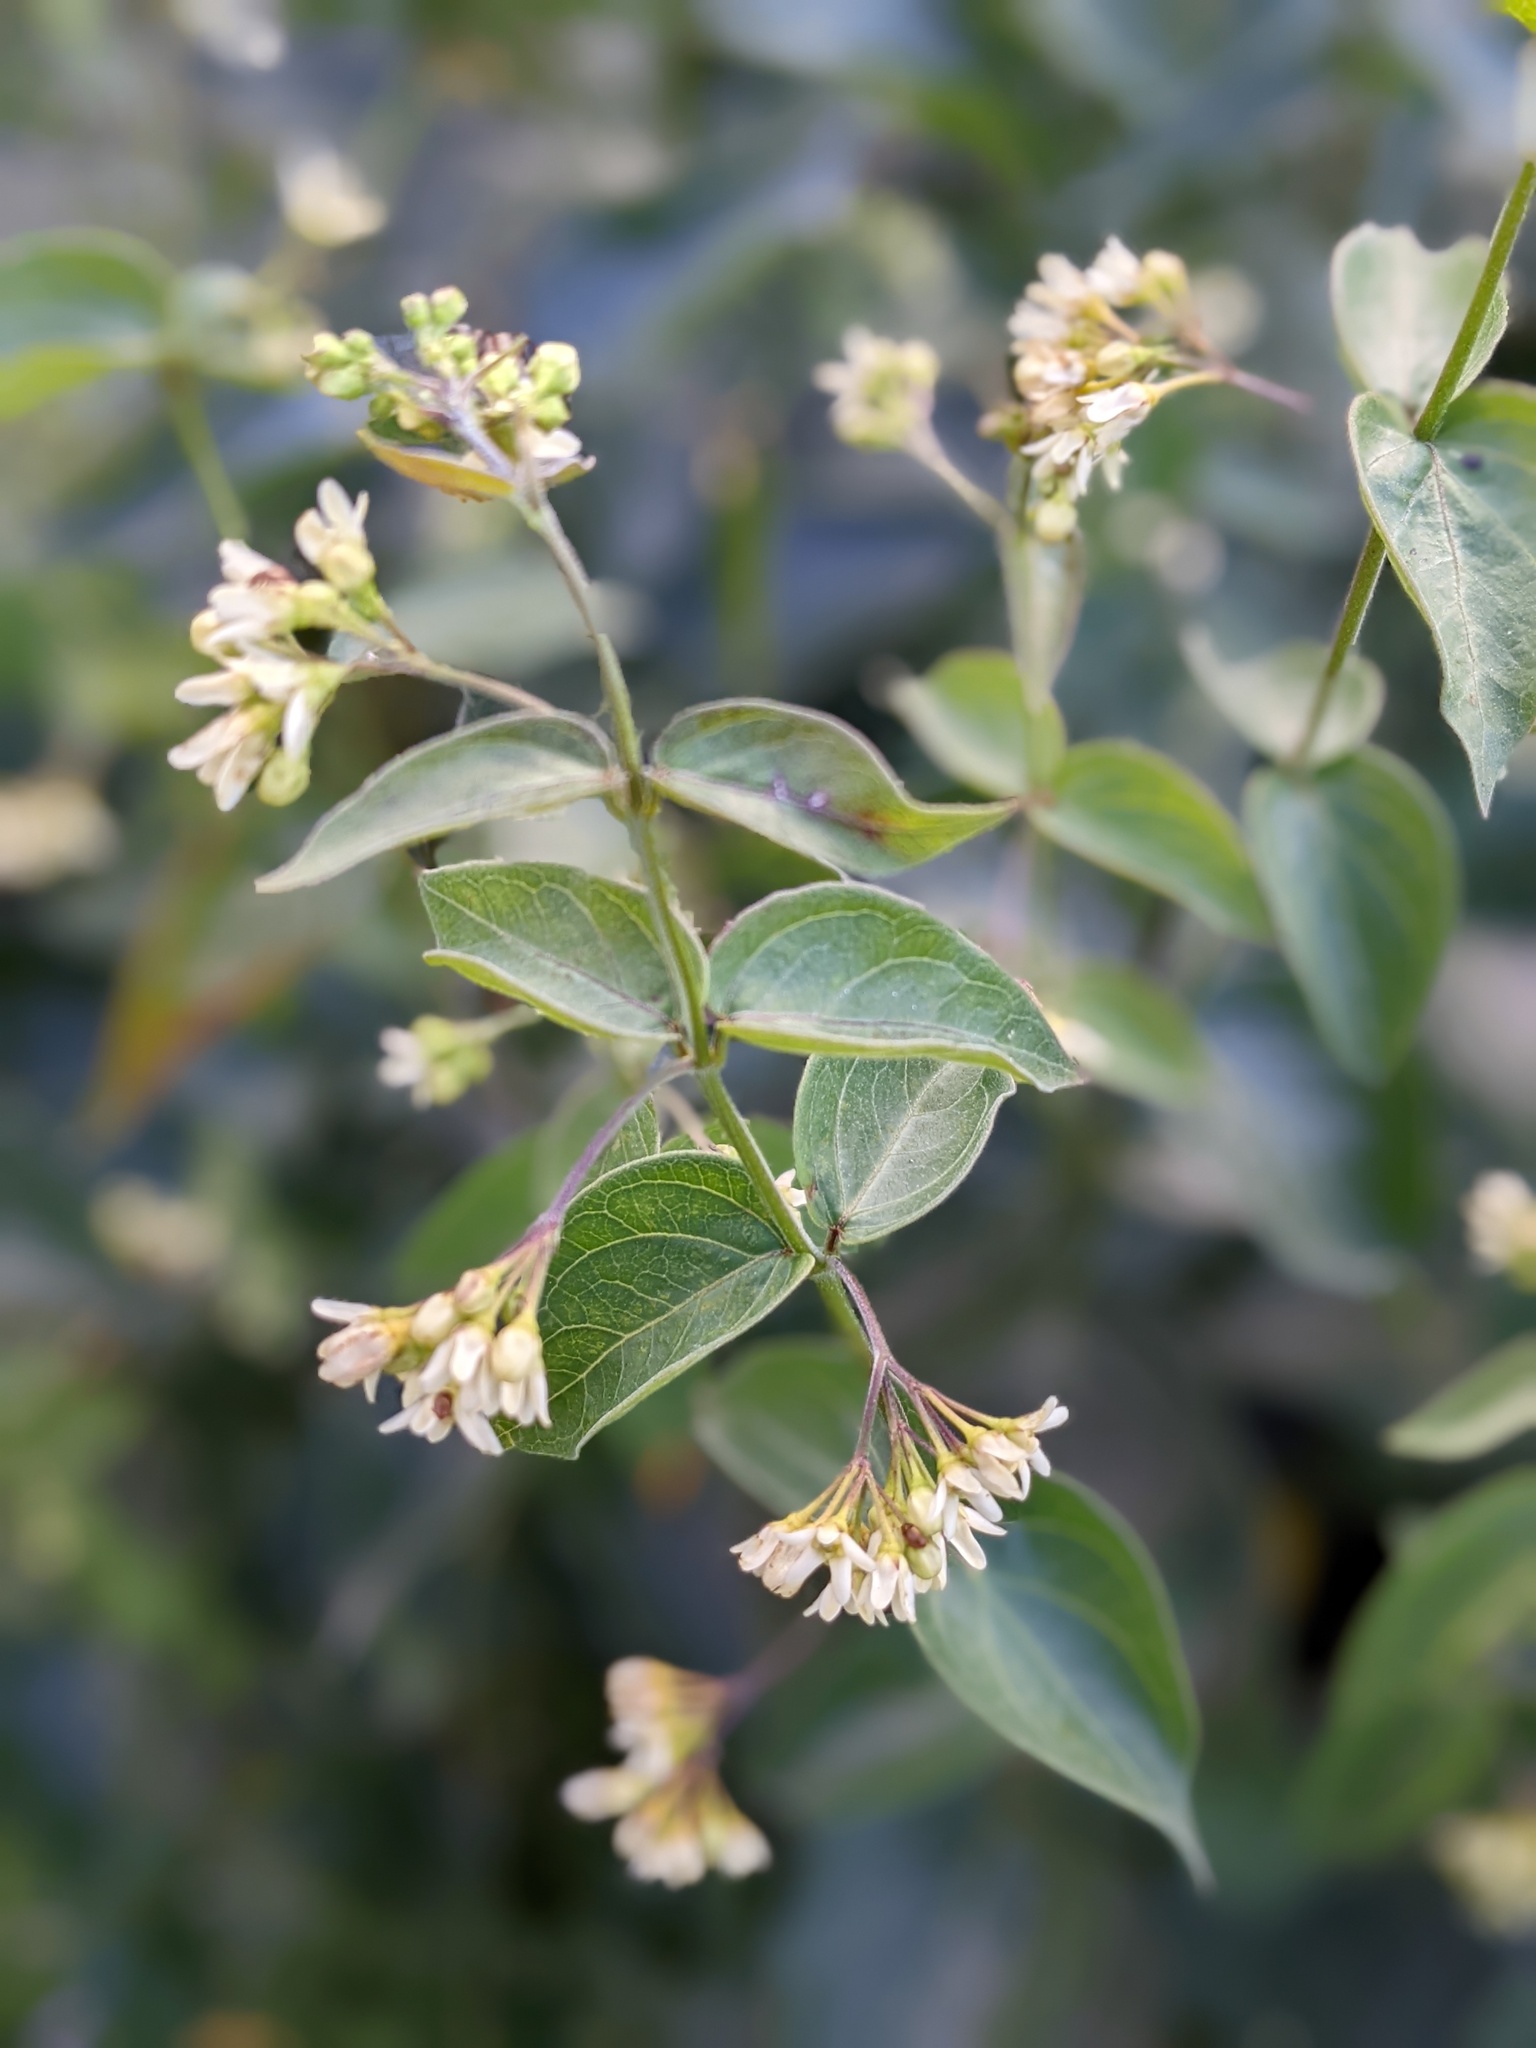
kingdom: Plantae
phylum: Tracheophyta
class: Magnoliopsida
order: Gentianales
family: Apocynaceae
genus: Vincetoxicum
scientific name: Vincetoxicum hirundinaria
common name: White swallowwort
